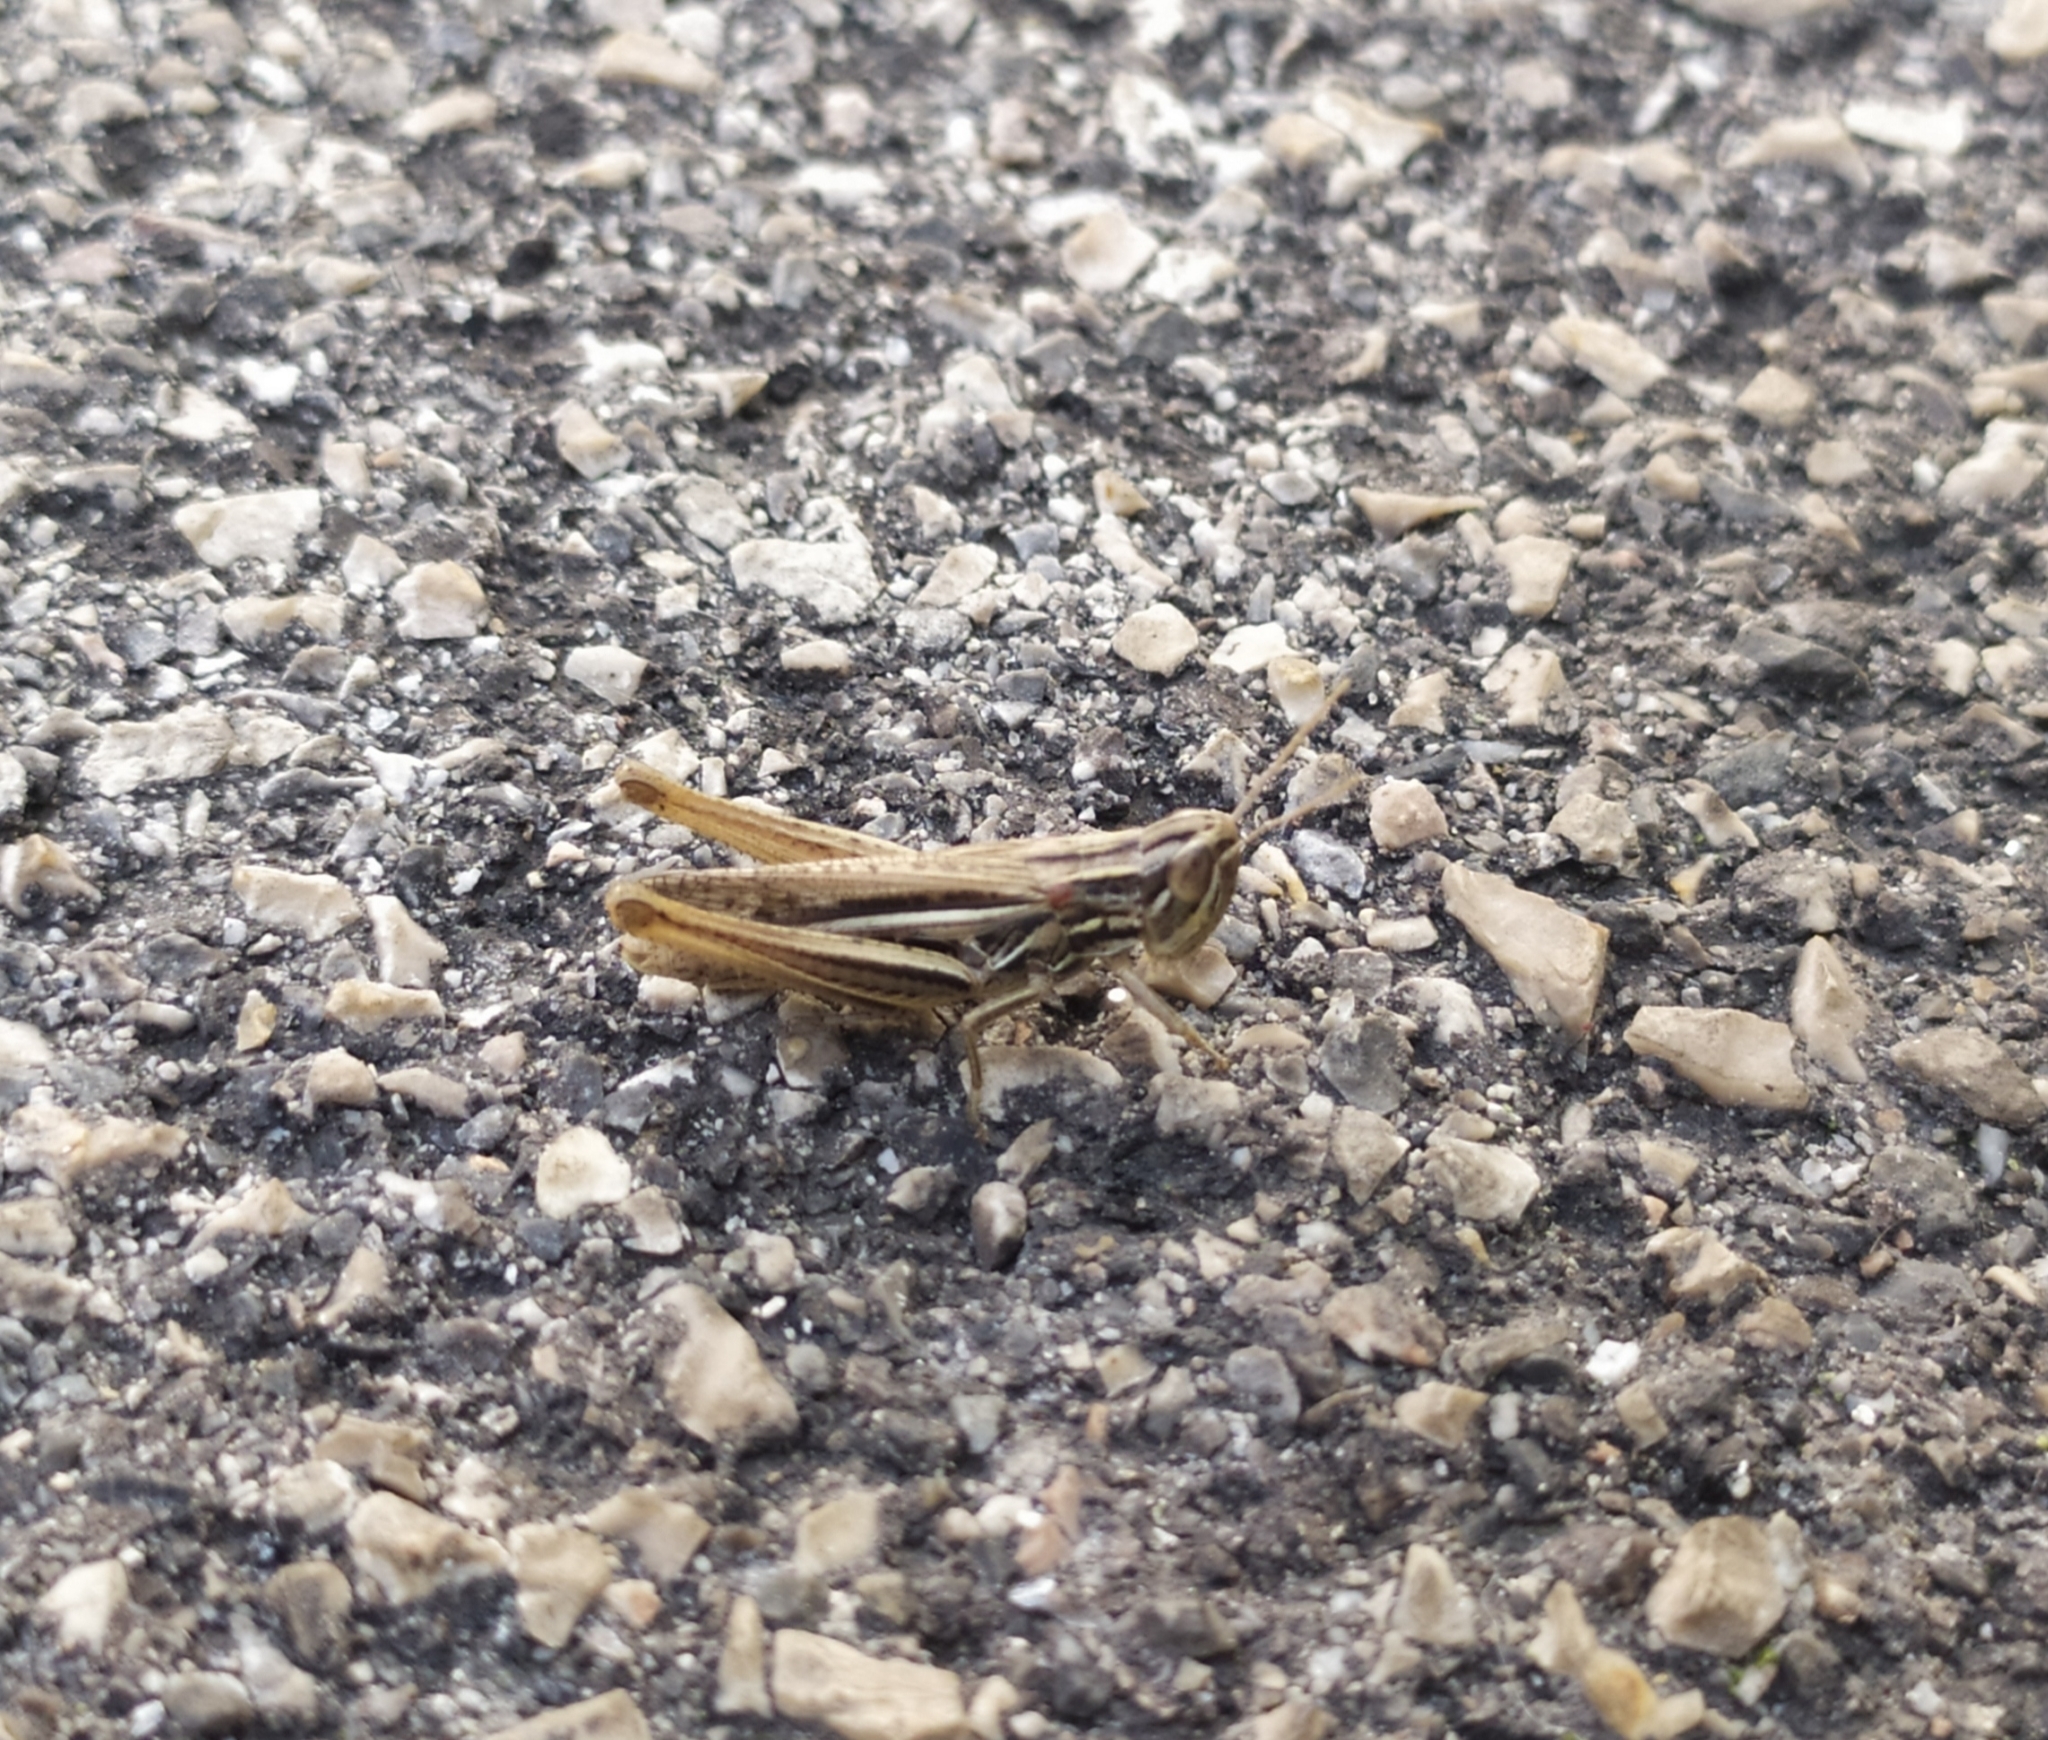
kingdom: Animalia
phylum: Arthropoda
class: Insecta
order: Orthoptera
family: Acrididae
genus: Euchorthippus
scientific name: Euchorthippus declivus
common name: Common straw grasshopper
